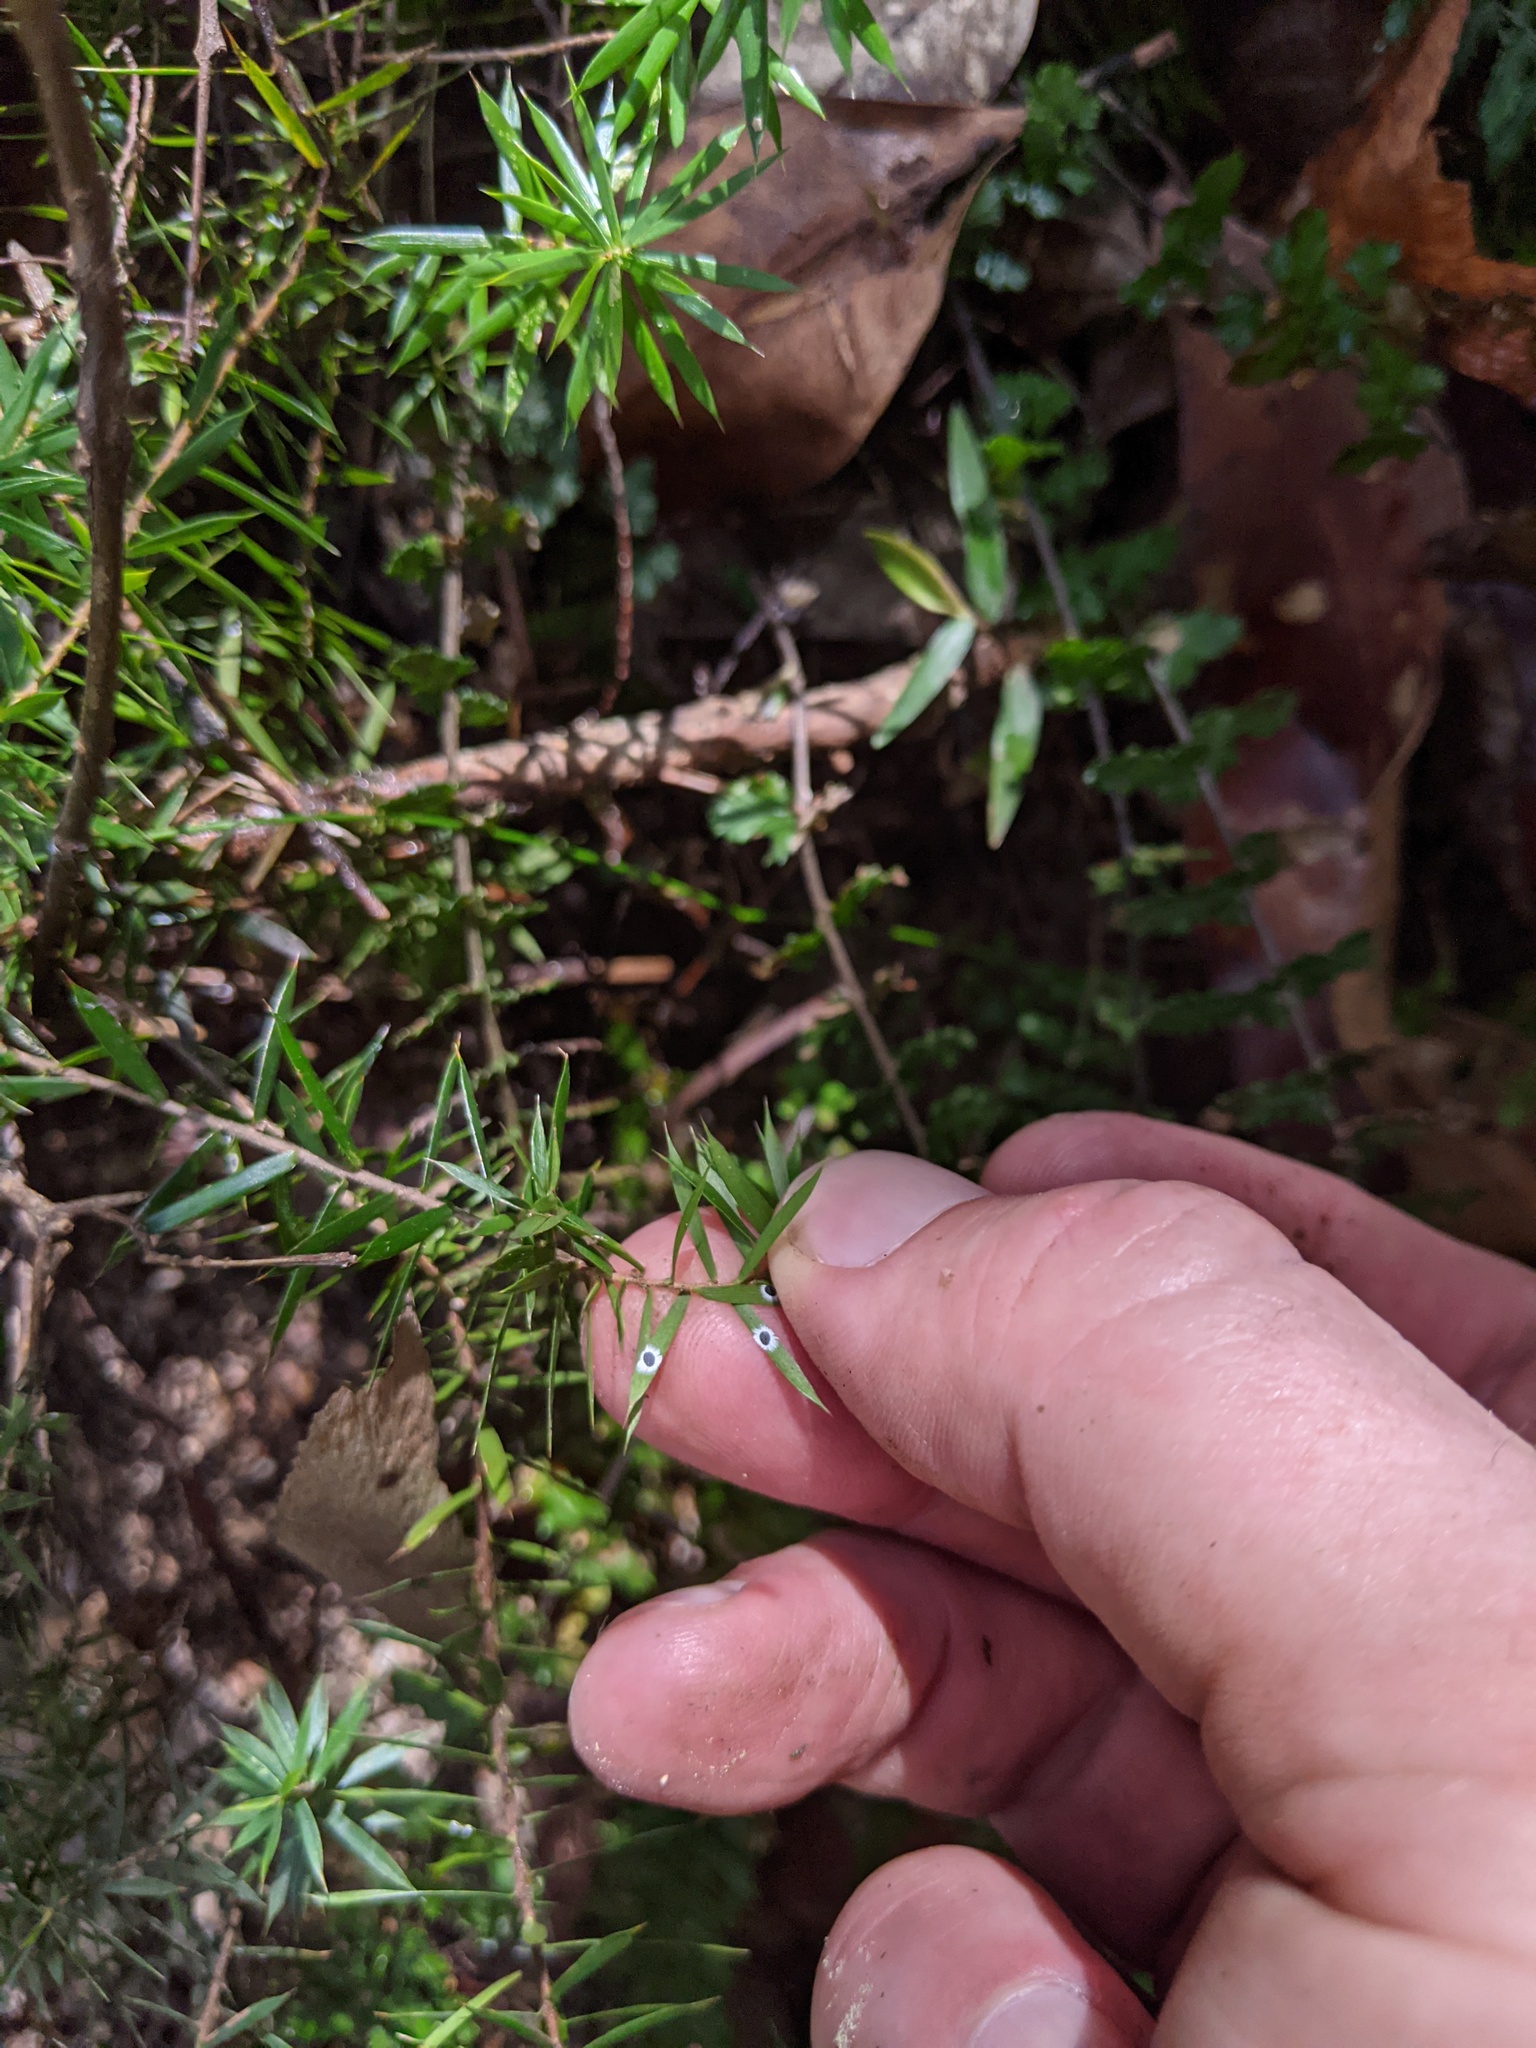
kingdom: Plantae
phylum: Tracheophyta
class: Magnoliopsida
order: Ericales
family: Ericaceae
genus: Styphelia
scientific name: Styphelia sieberi
